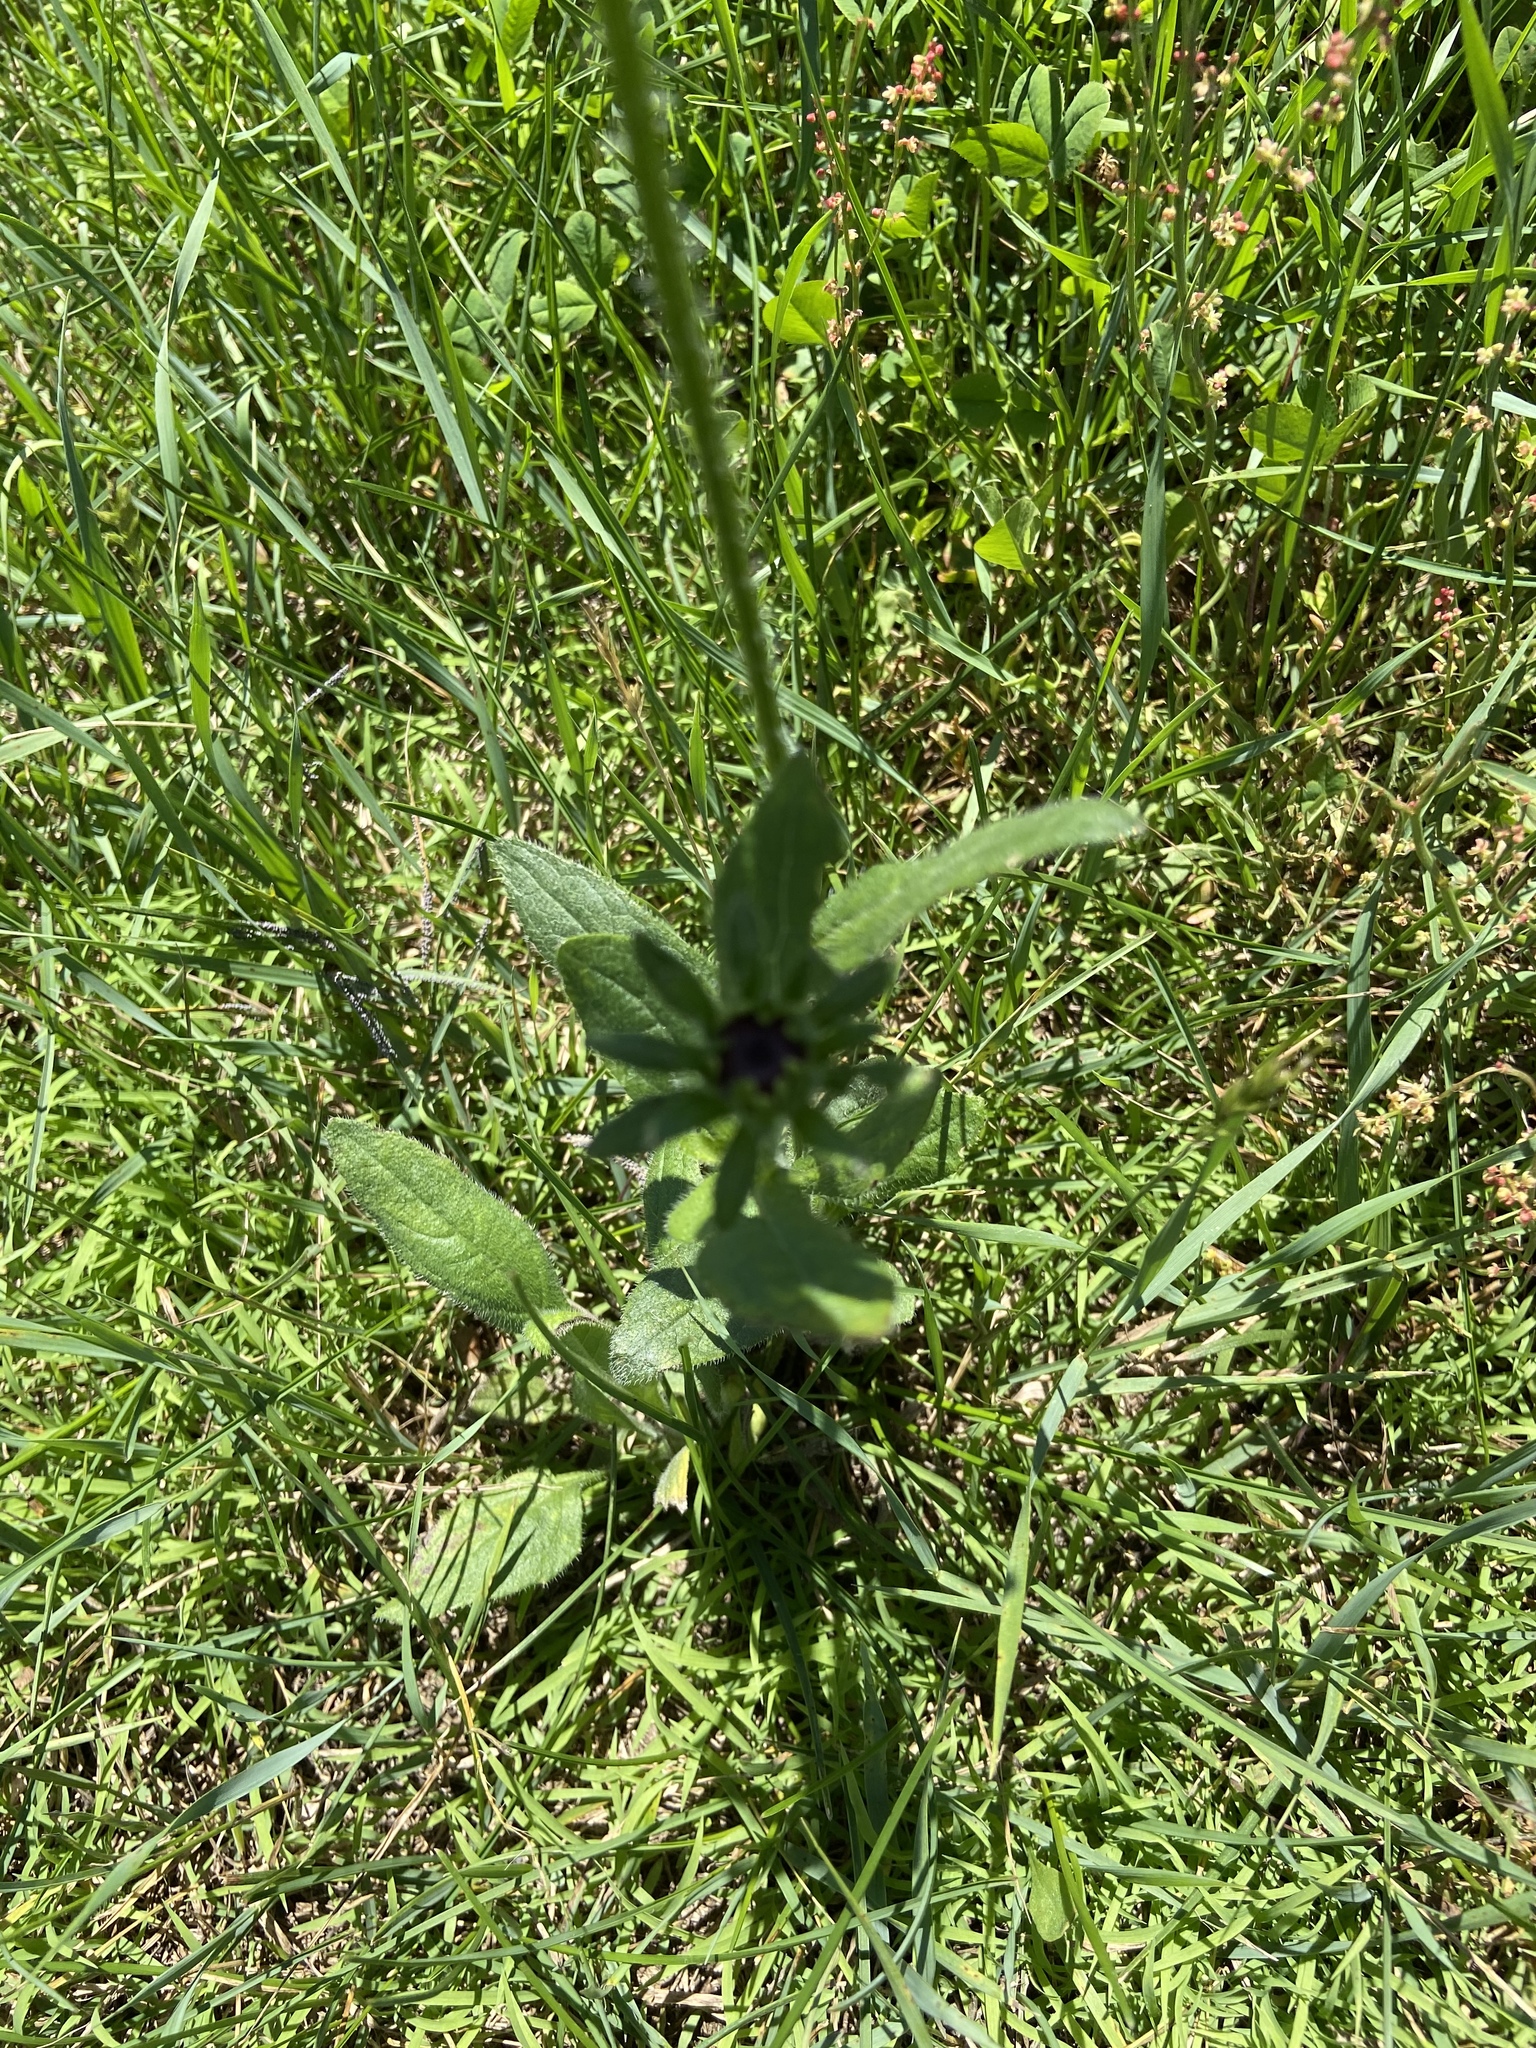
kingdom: Plantae
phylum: Tracheophyta
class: Magnoliopsida
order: Asterales
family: Asteraceae
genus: Rudbeckia
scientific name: Rudbeckia hirta
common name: Black-eyed-susan
